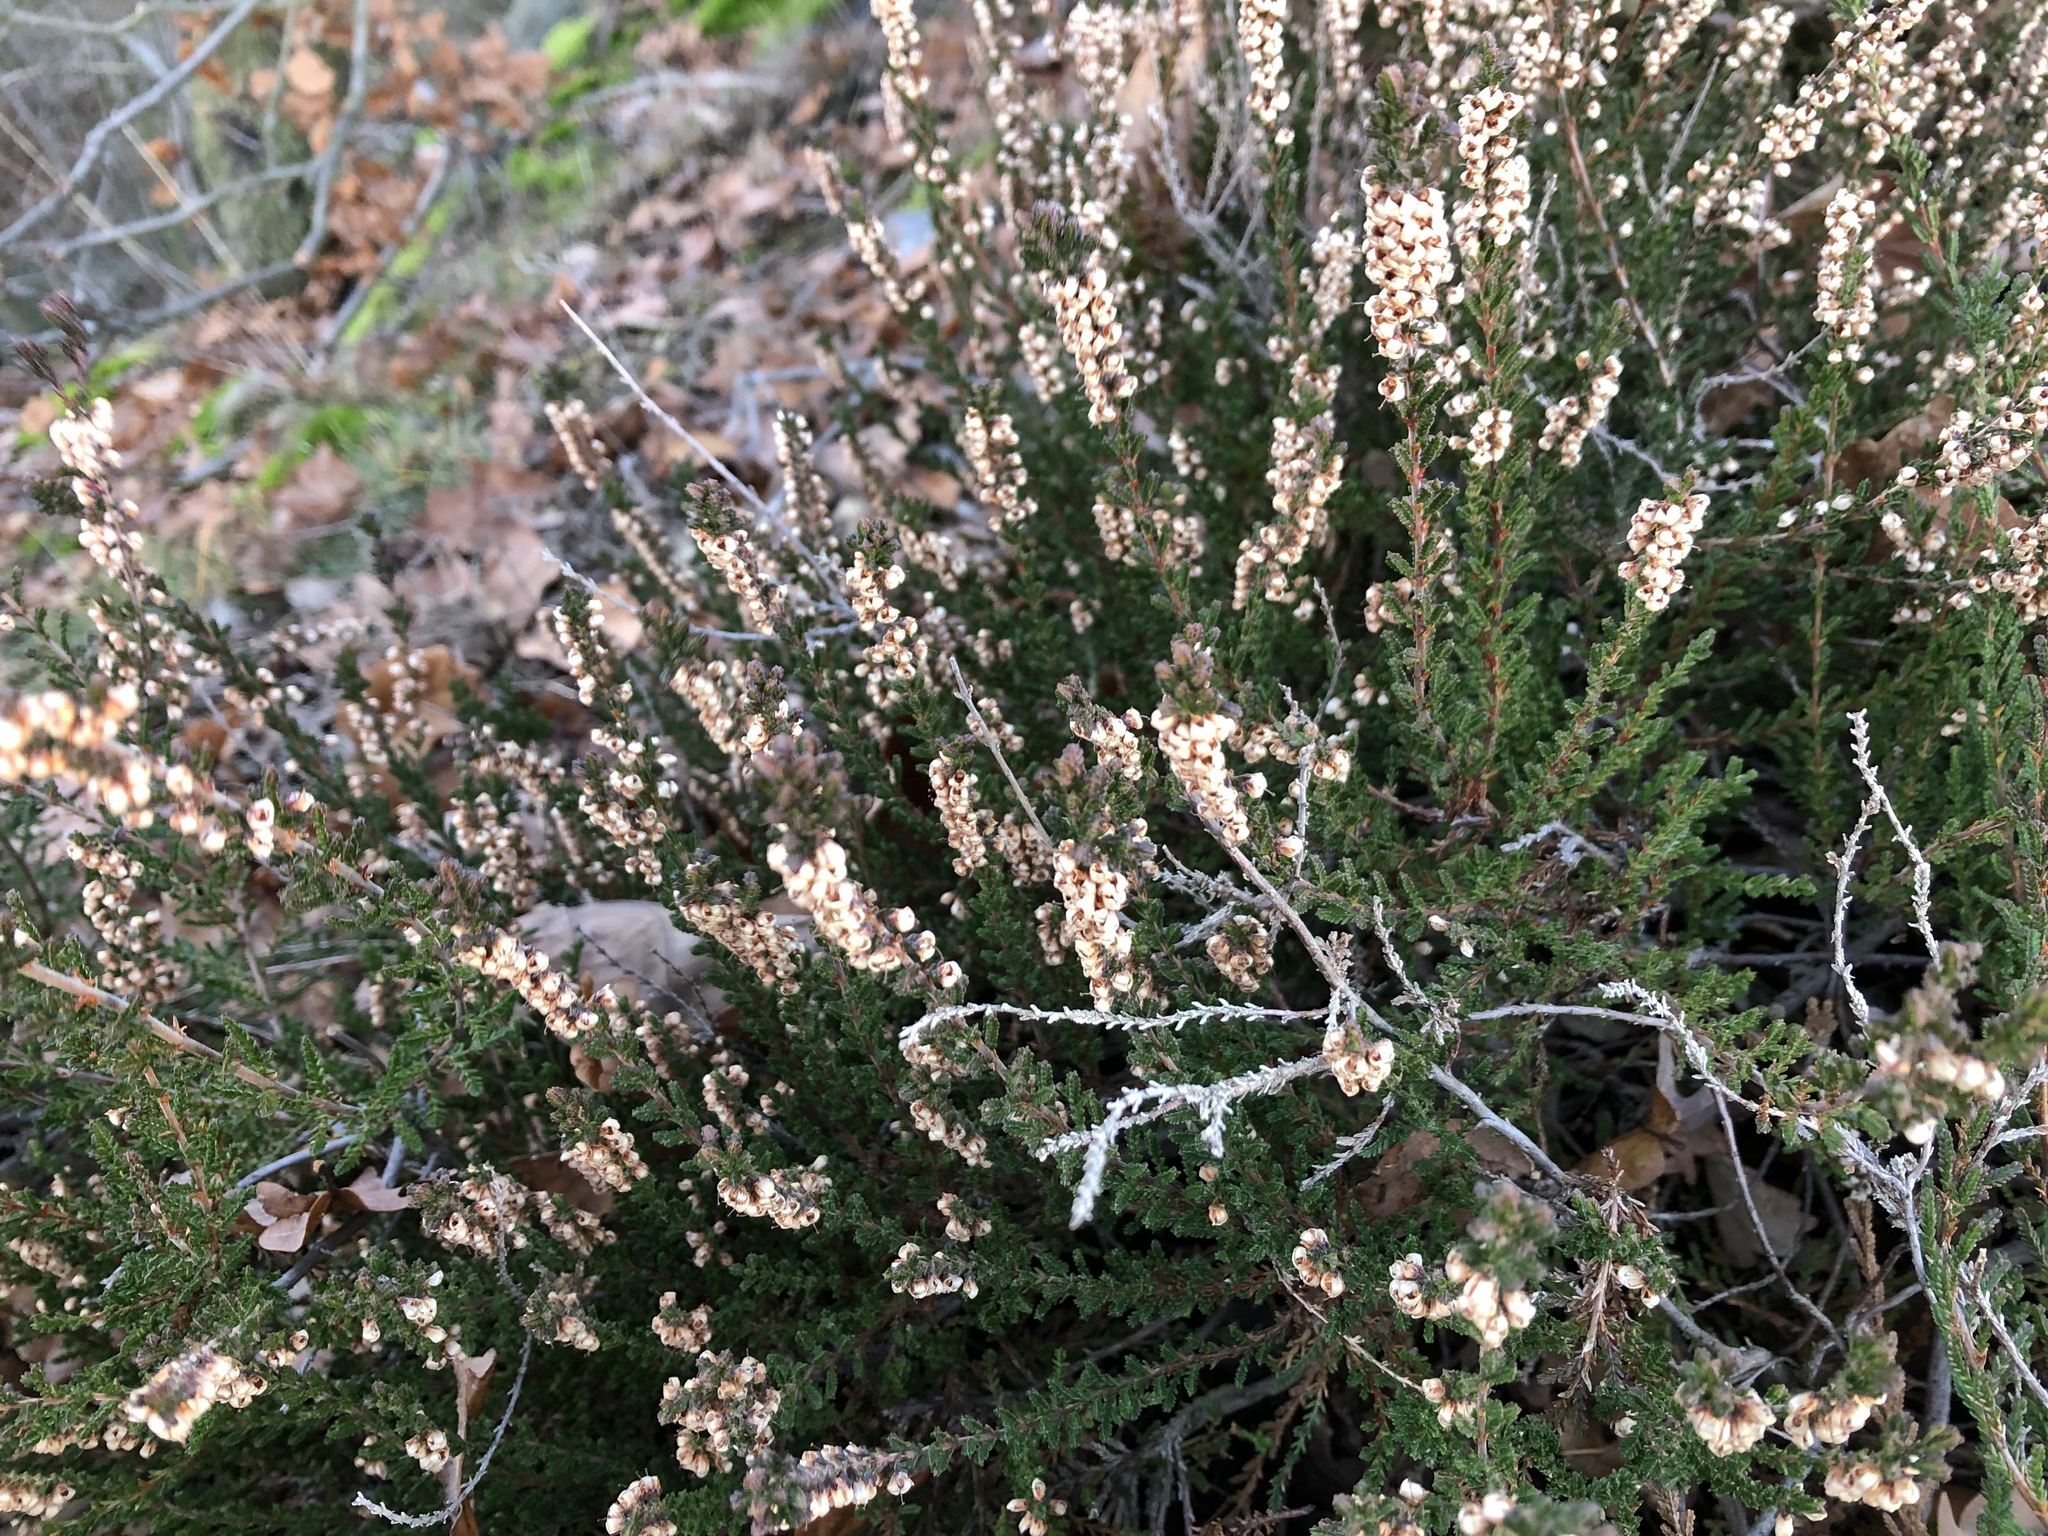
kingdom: Plantae
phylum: Tracheophyta
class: Magnoliopsida
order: Ericales
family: Ericaceae
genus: Calluna
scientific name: Calluna vulgaris
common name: Heather
